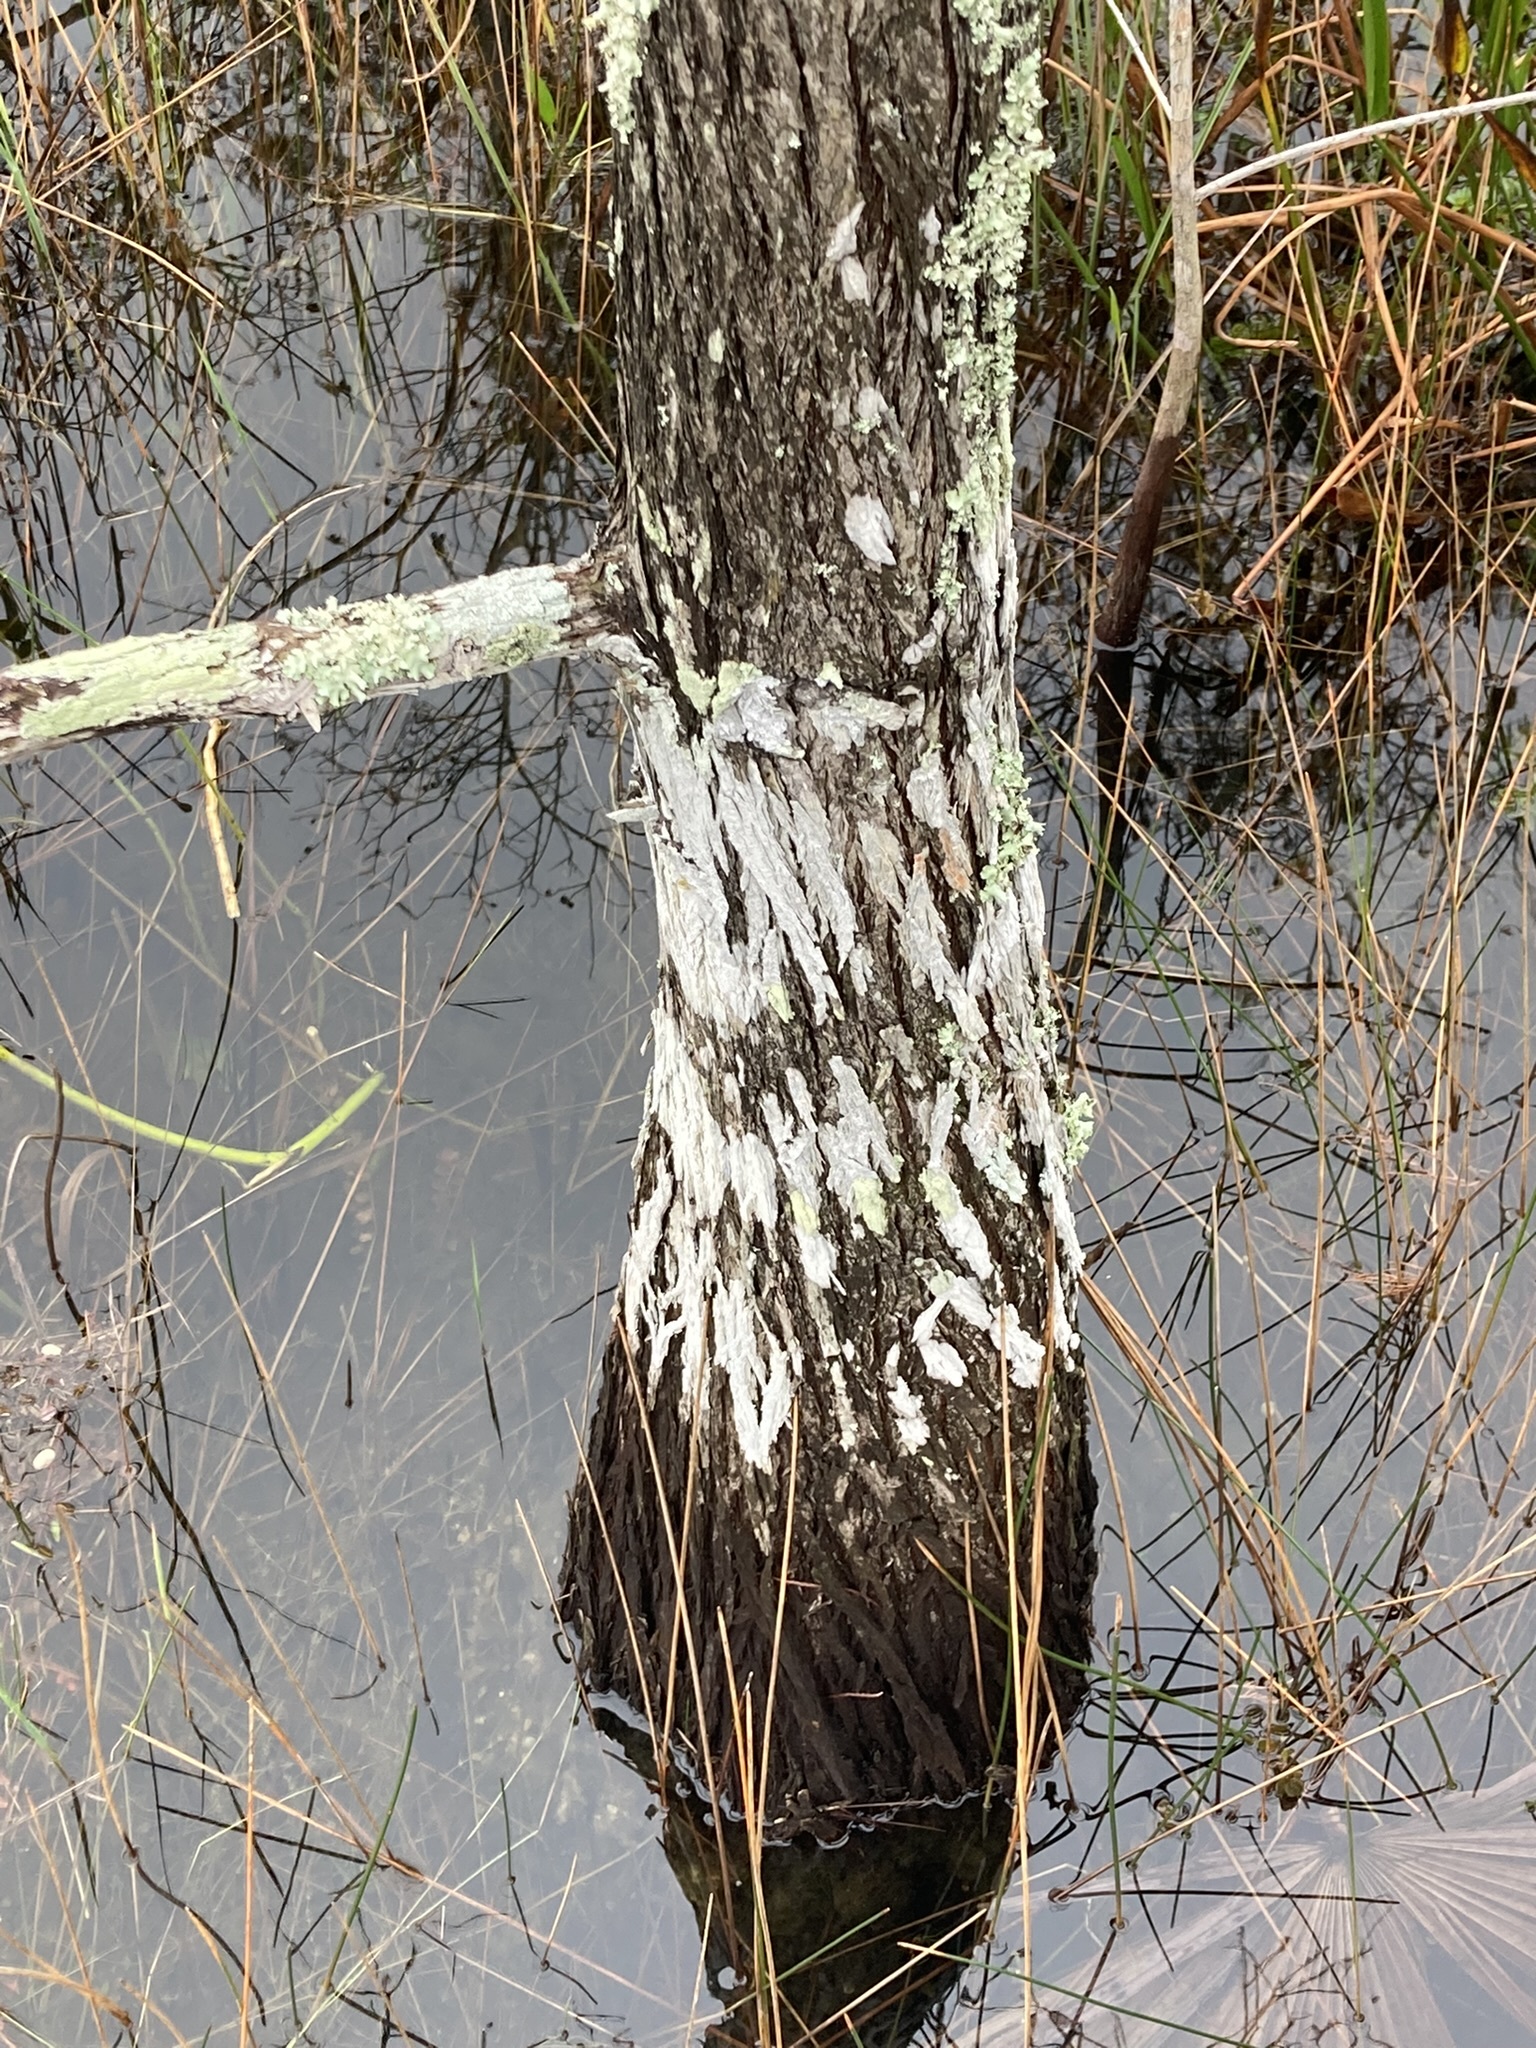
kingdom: Plantae
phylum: Tracheophyta
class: Pinopsida
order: Pinales
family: Cupressaceae
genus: Taxodium
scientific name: Taxodium distichum
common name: Bald cypress
